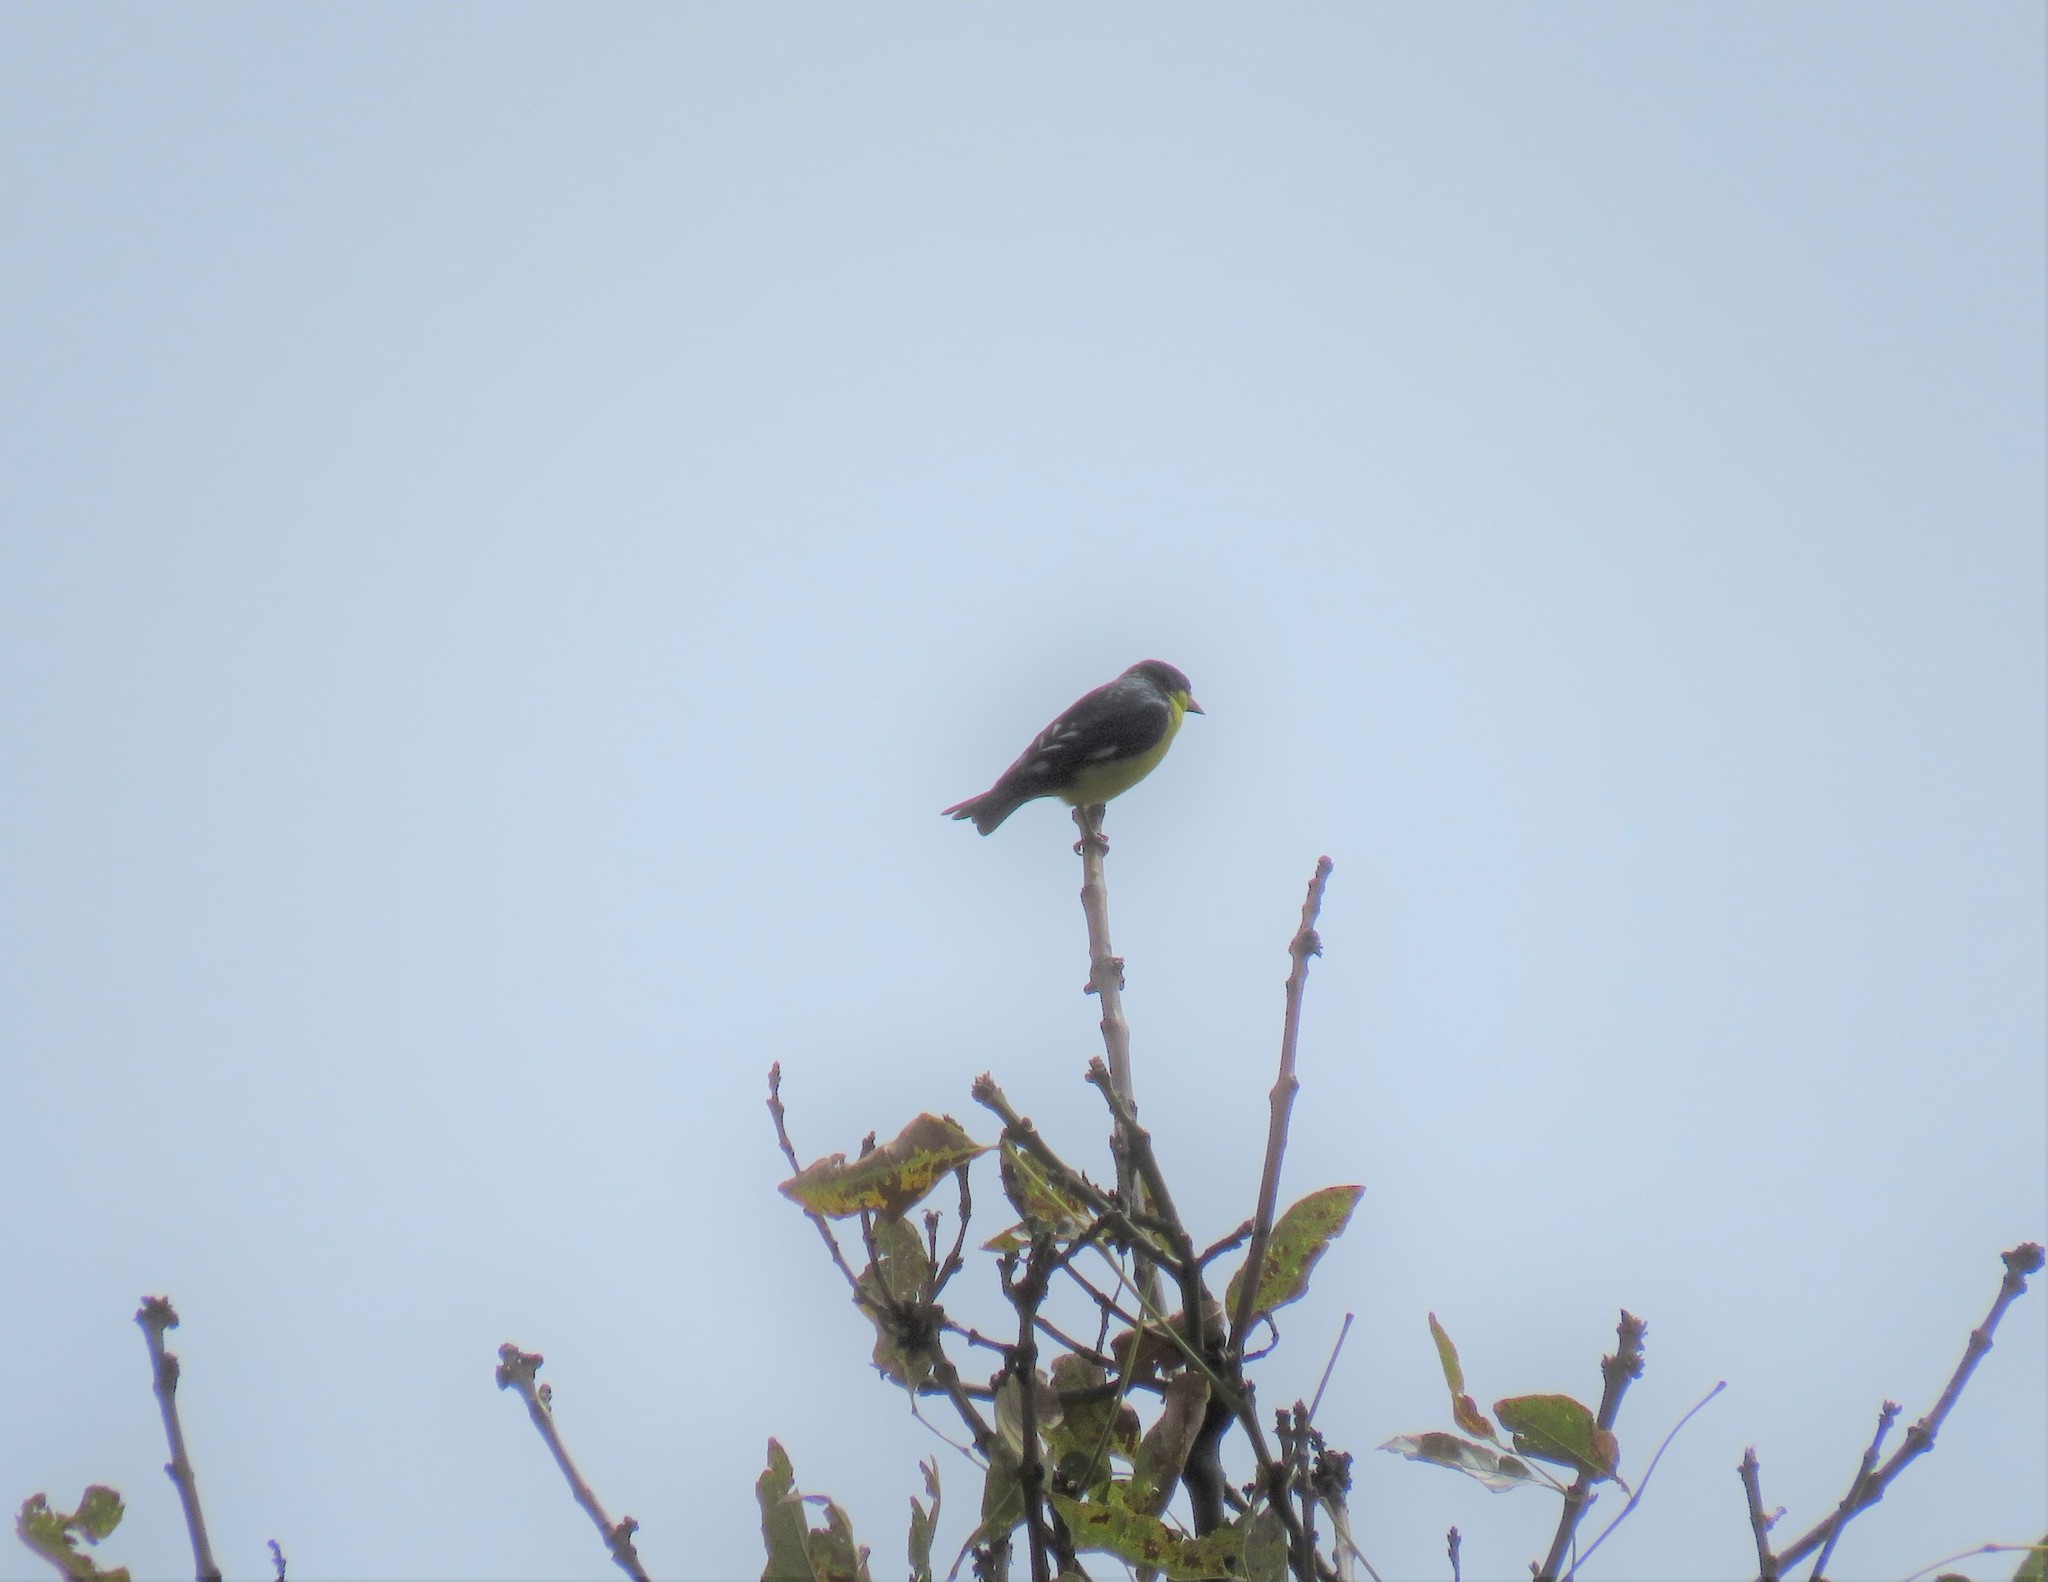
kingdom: Animalia
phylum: Chordata
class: Aves
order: Passeriformes
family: Fringillidae
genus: Spinus
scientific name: Spinus psaltria
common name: Lesser goldfinch
